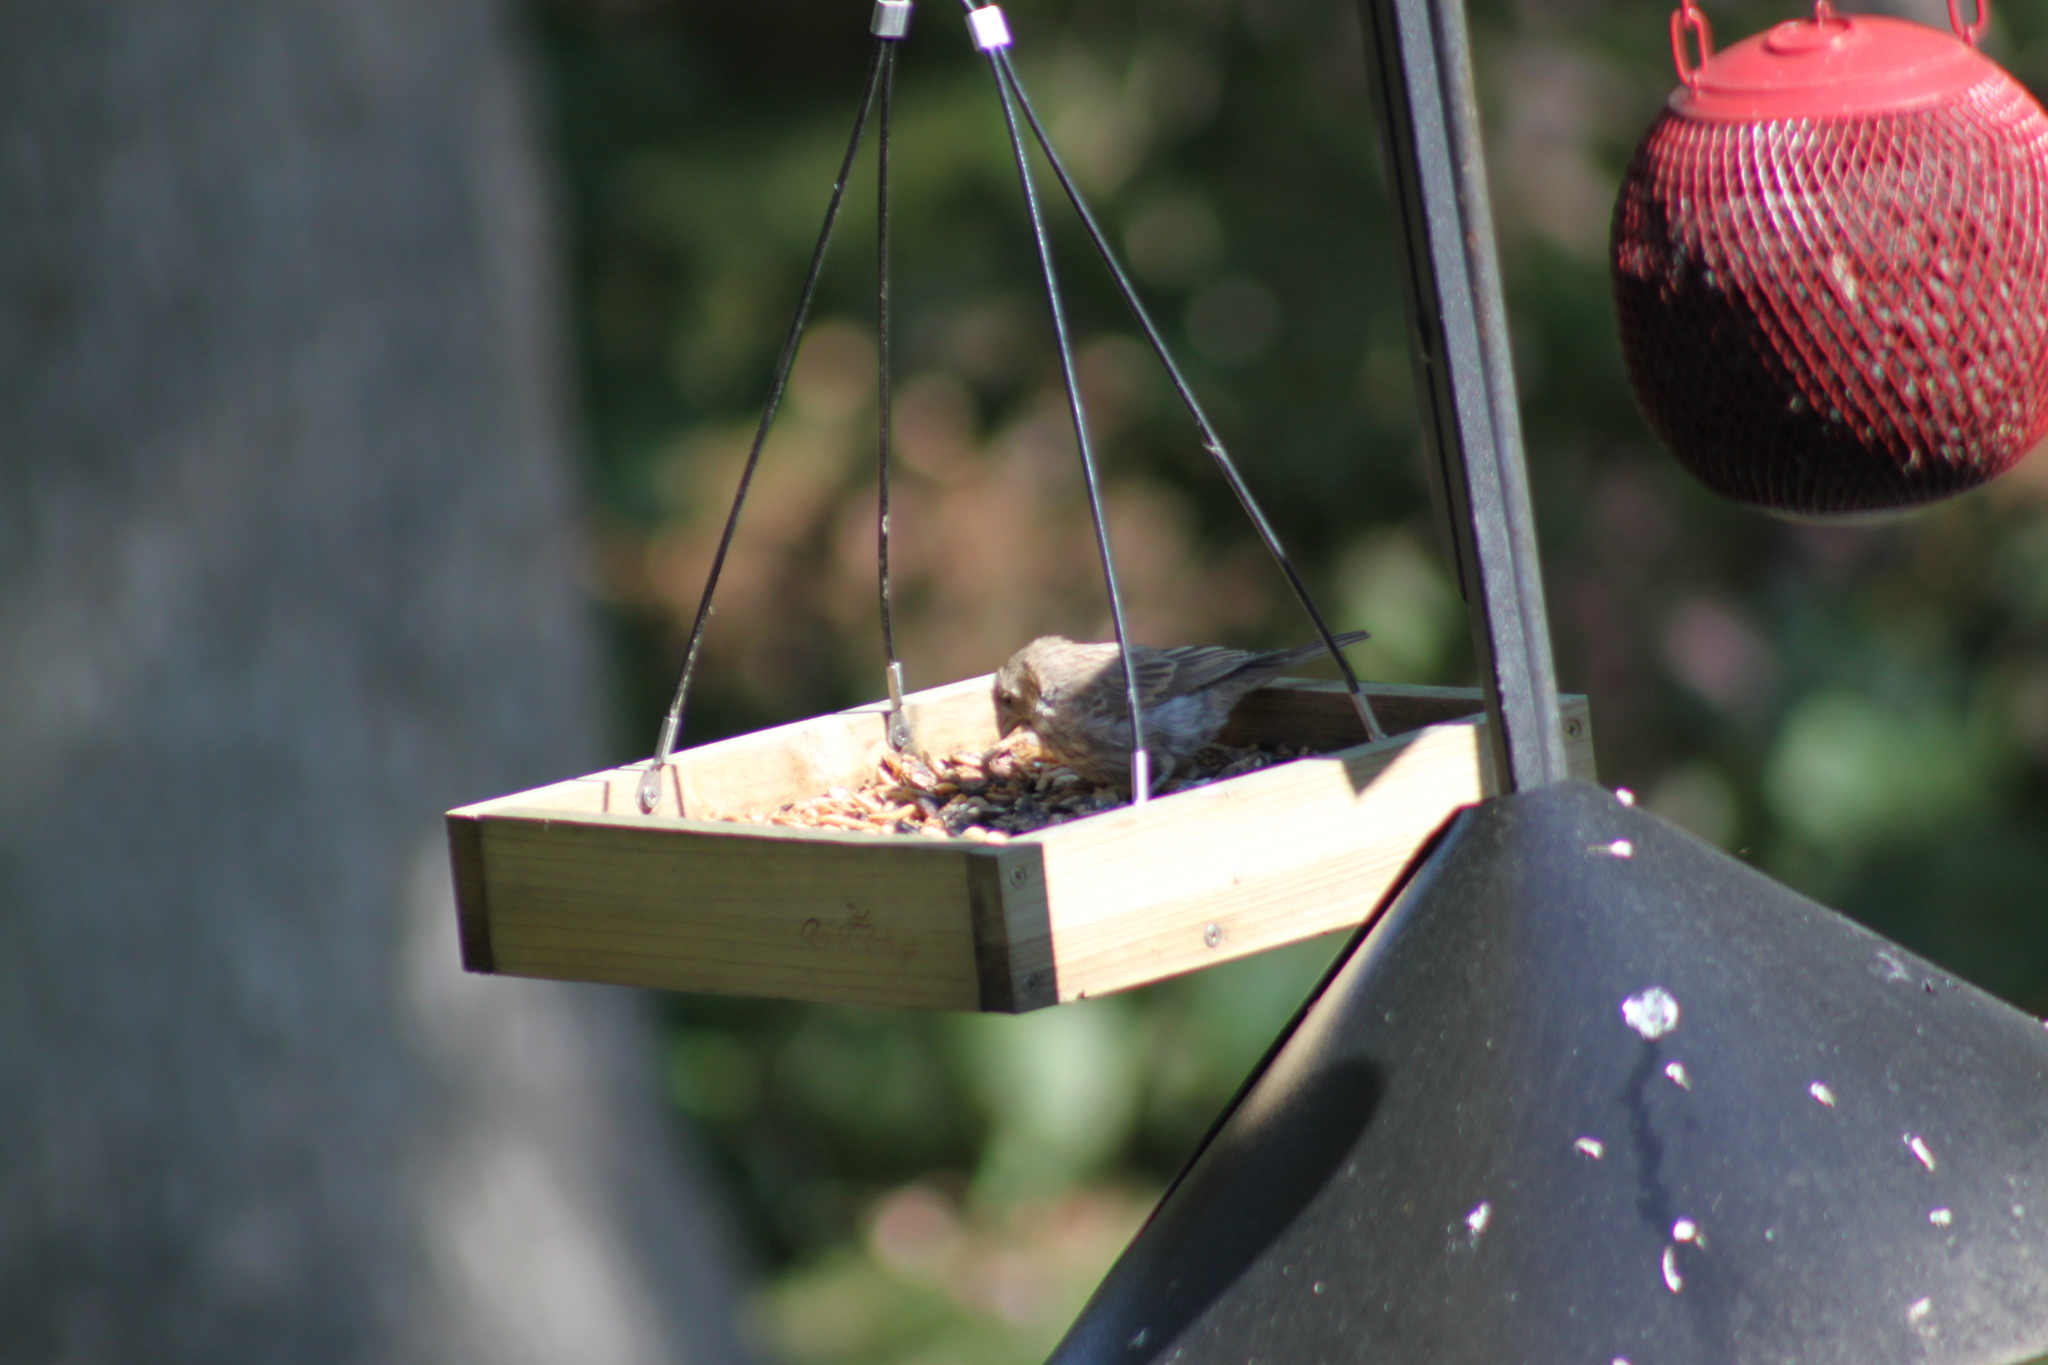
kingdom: Animalia
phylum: Chordata
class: Aves
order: Passeriformes
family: Fringillidae
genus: Haemorhous
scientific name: Haemorhous mexicanus
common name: House finch
